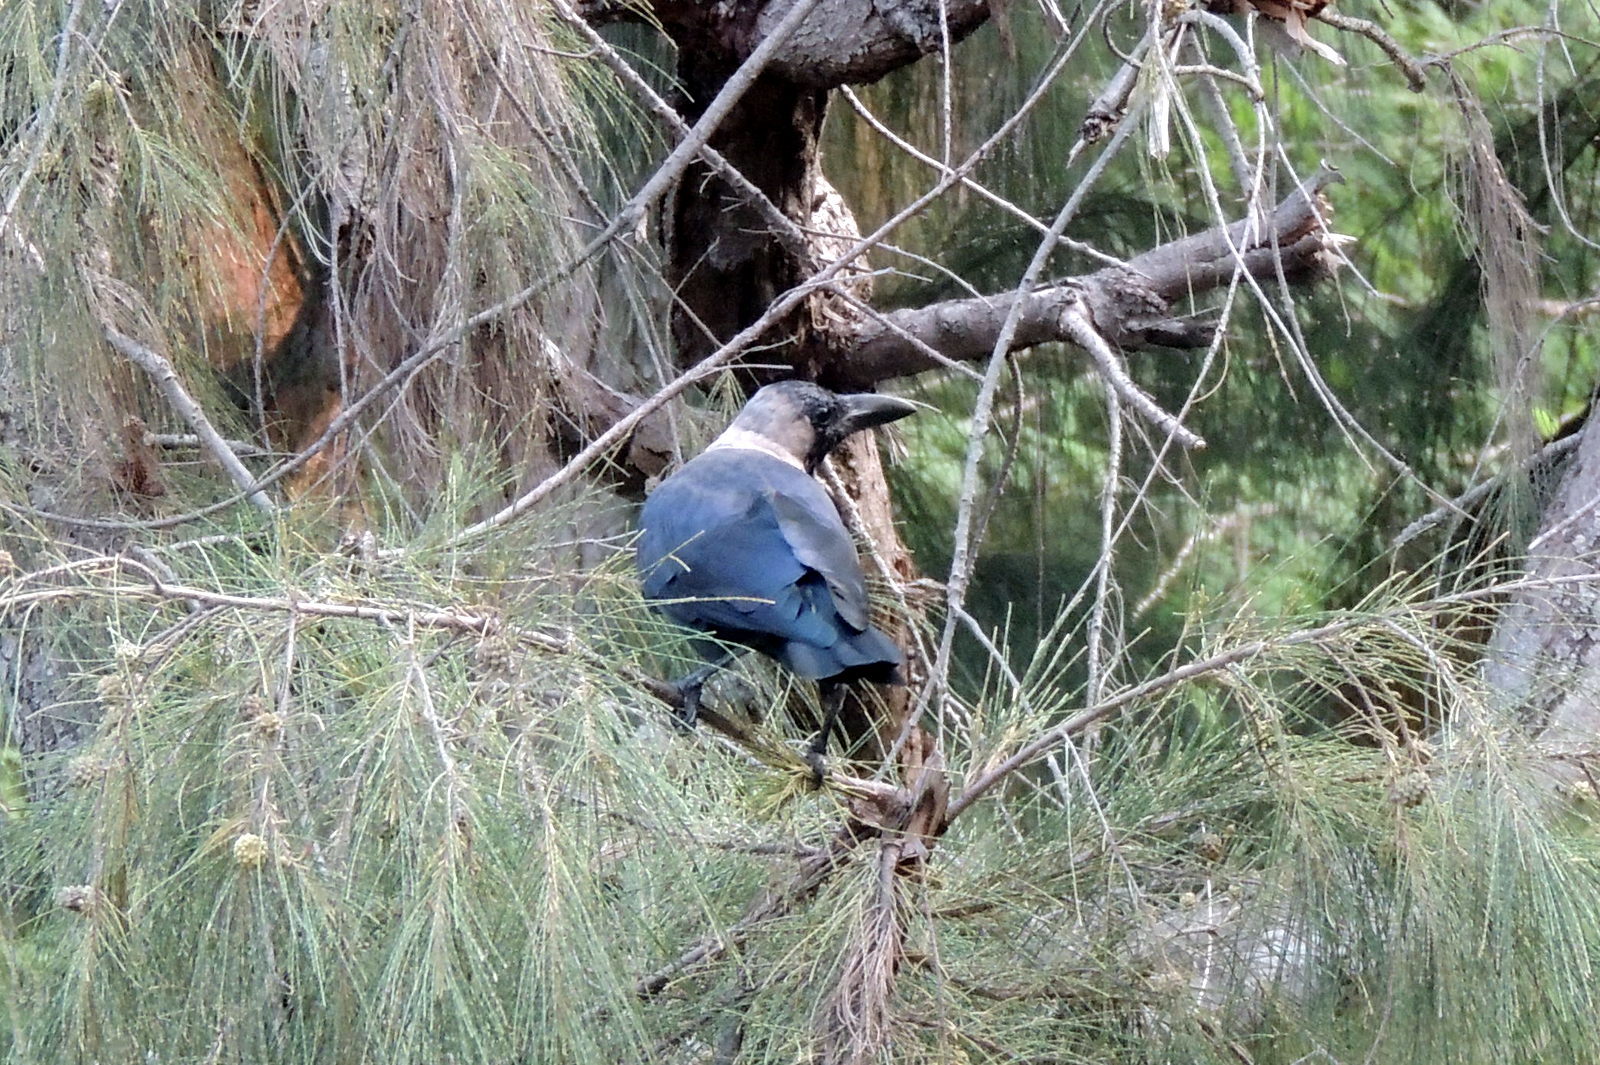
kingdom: Animalia
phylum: Chordata
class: Aves
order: Passeriformes
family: Corvidae
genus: Corvus
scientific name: Corvus splendens
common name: House crow
